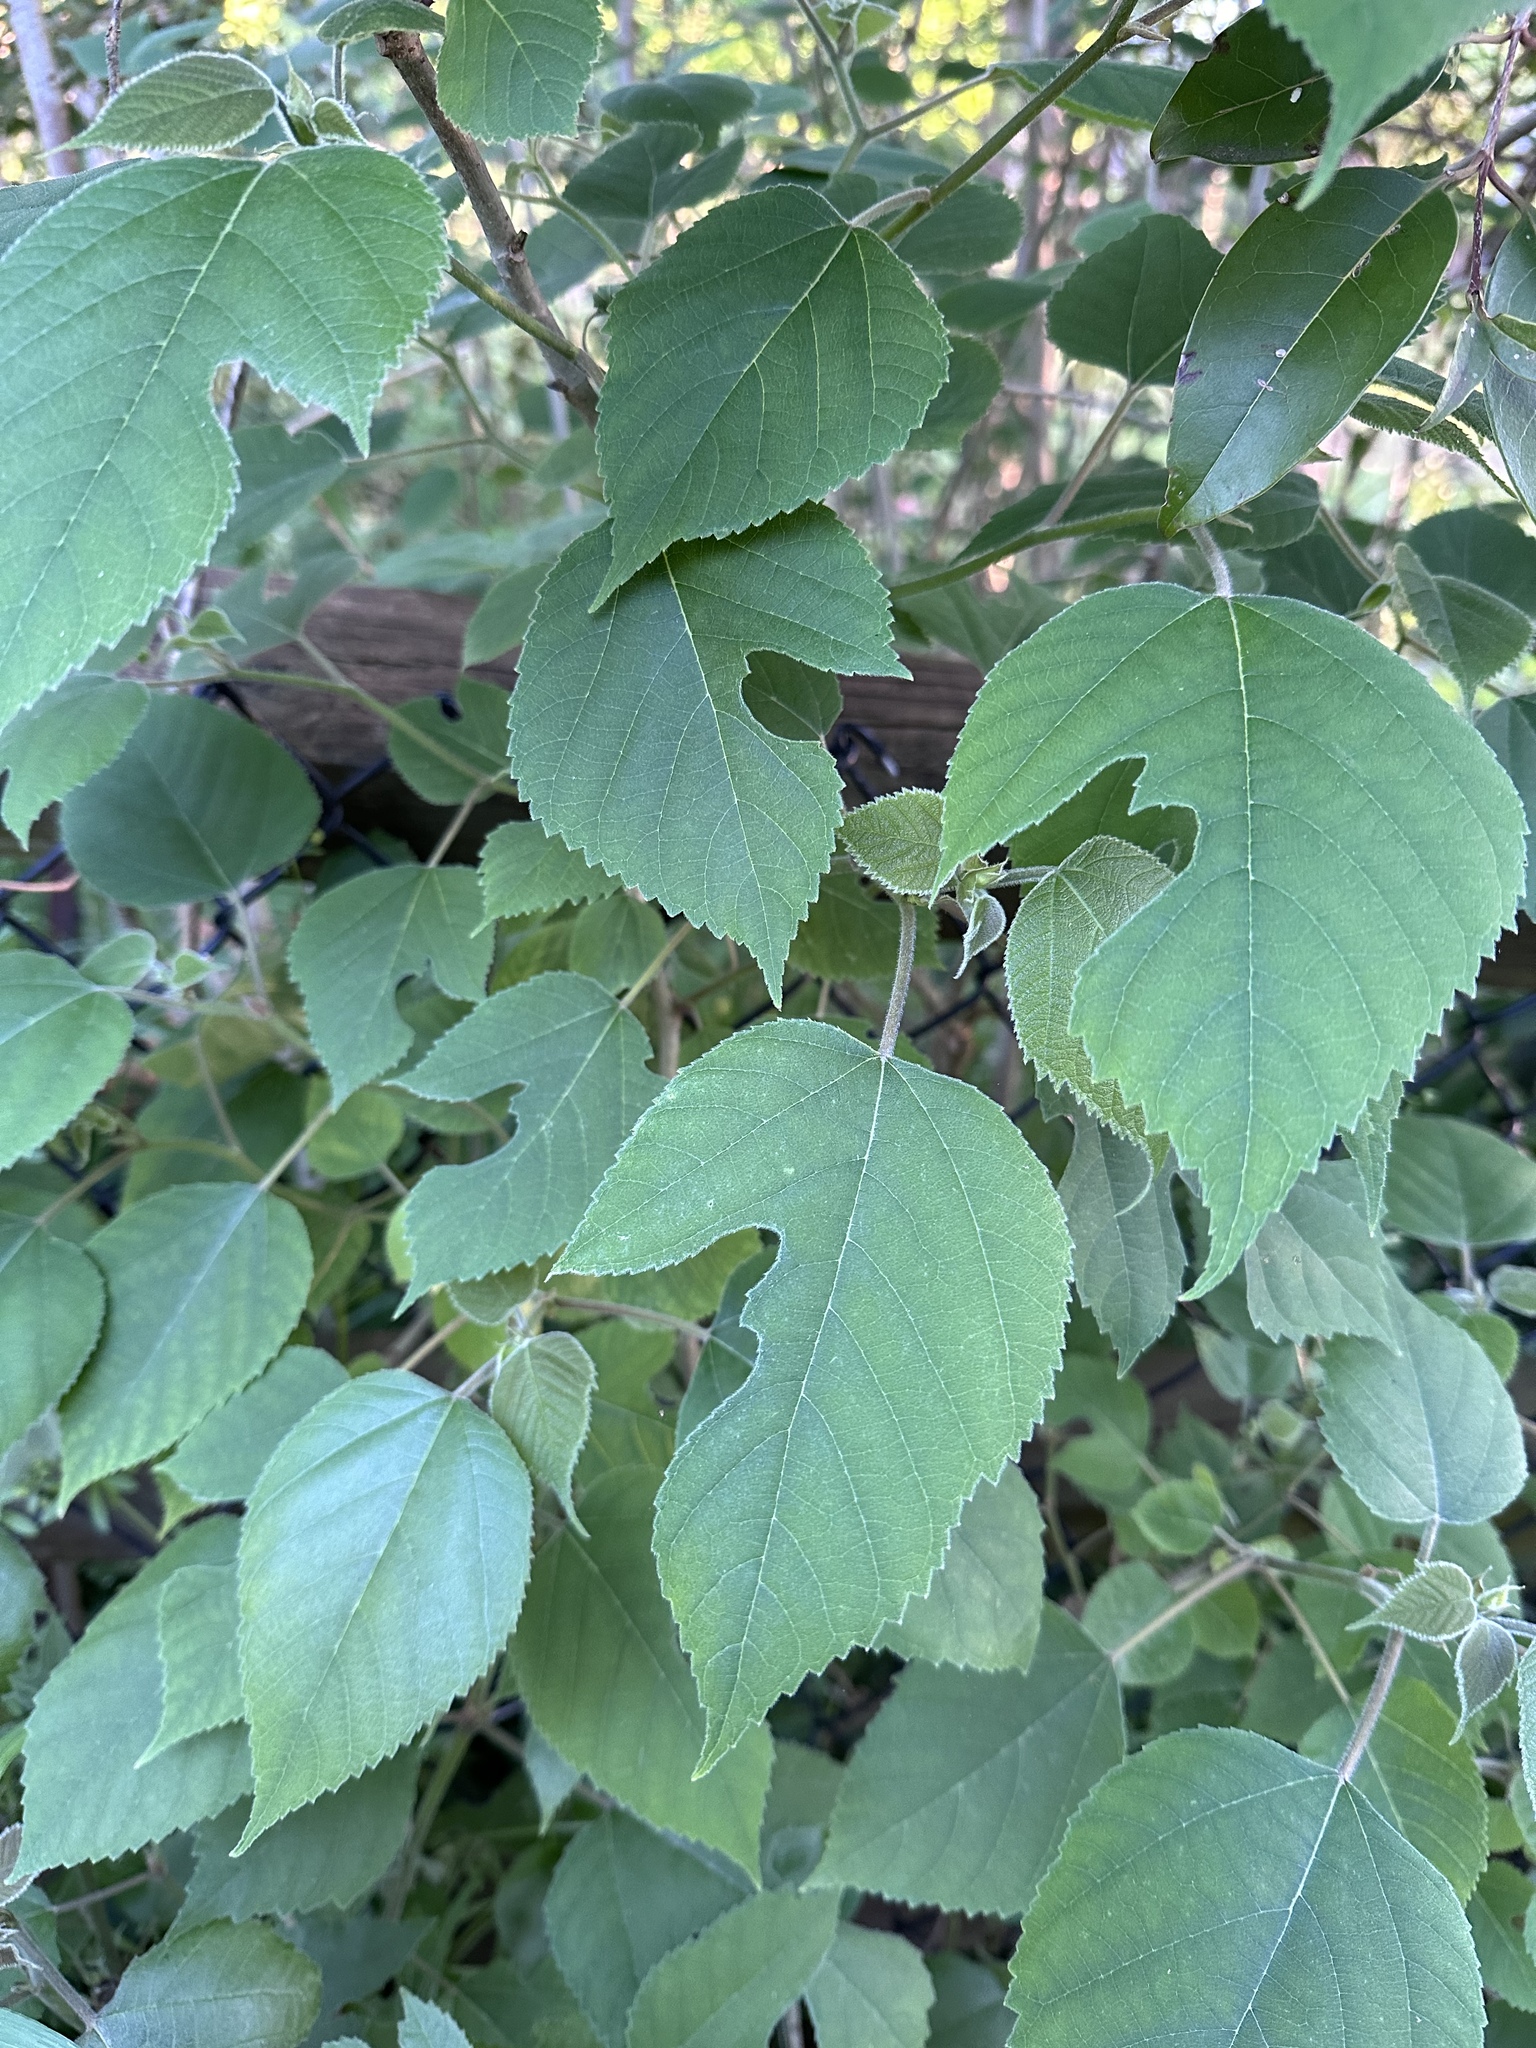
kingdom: Plantae
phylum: Tracheophyta
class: Magnoliopsida
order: Rosales
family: Moraceae
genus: Broussonetia
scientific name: Broussonetia papyrifera
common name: Paper mulberry
